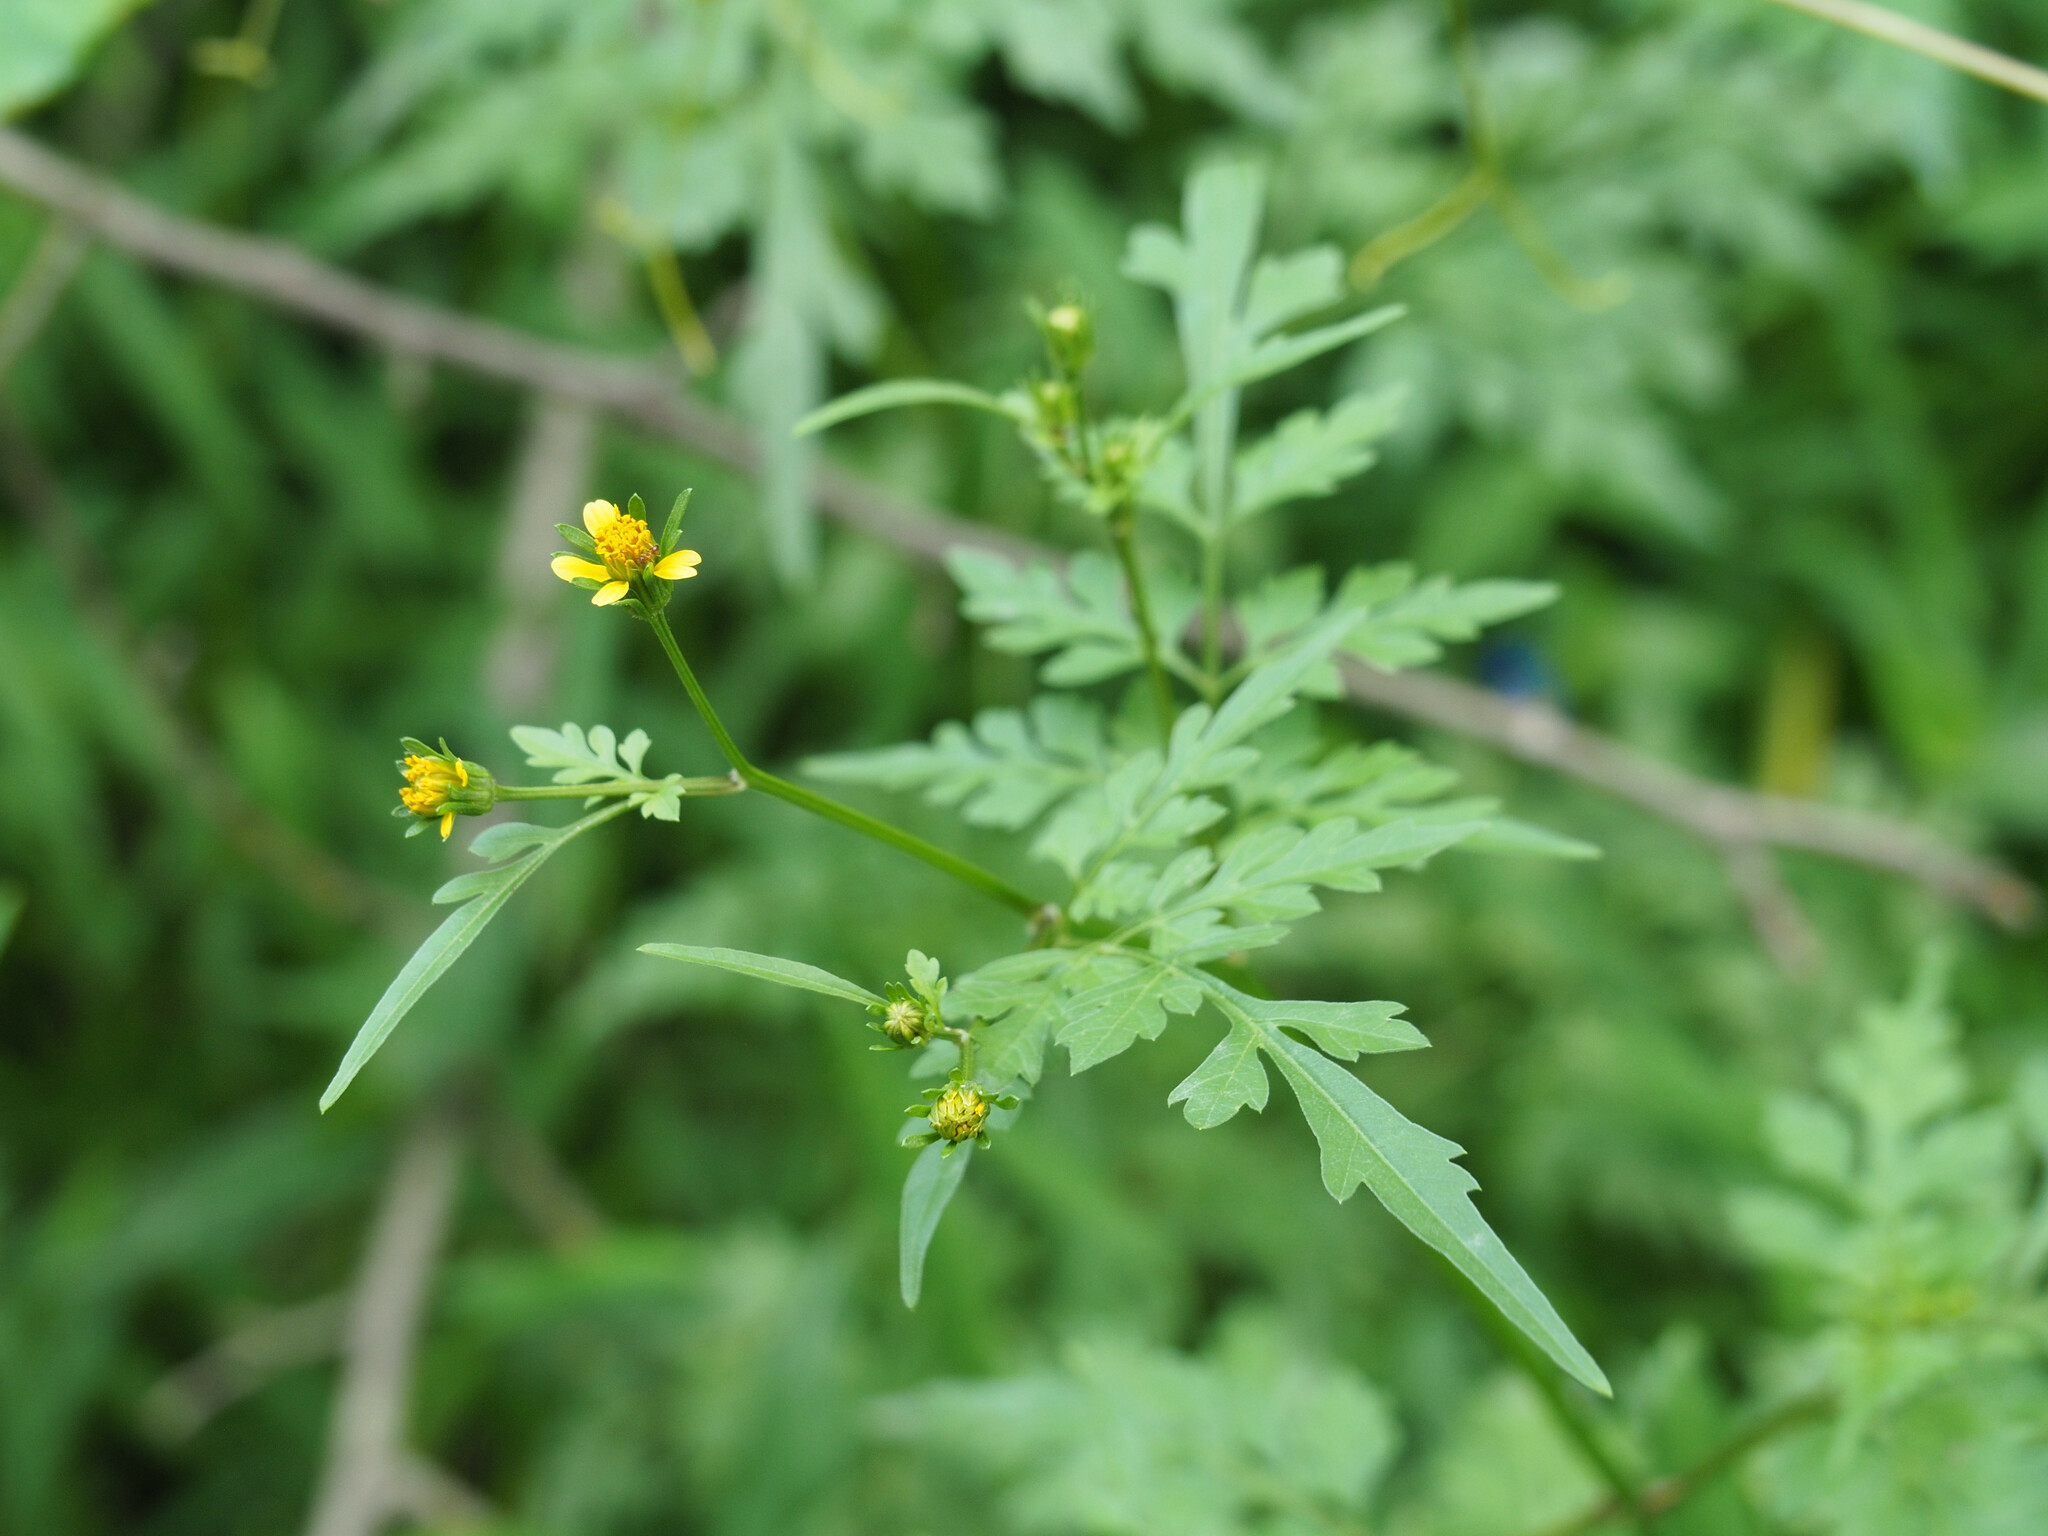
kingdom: Plantae
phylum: Tracheophyta
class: Magnoliopsida
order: Asterales
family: Asteraceae
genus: Bidens
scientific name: Bidens bipinnata
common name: Spanish-needles
